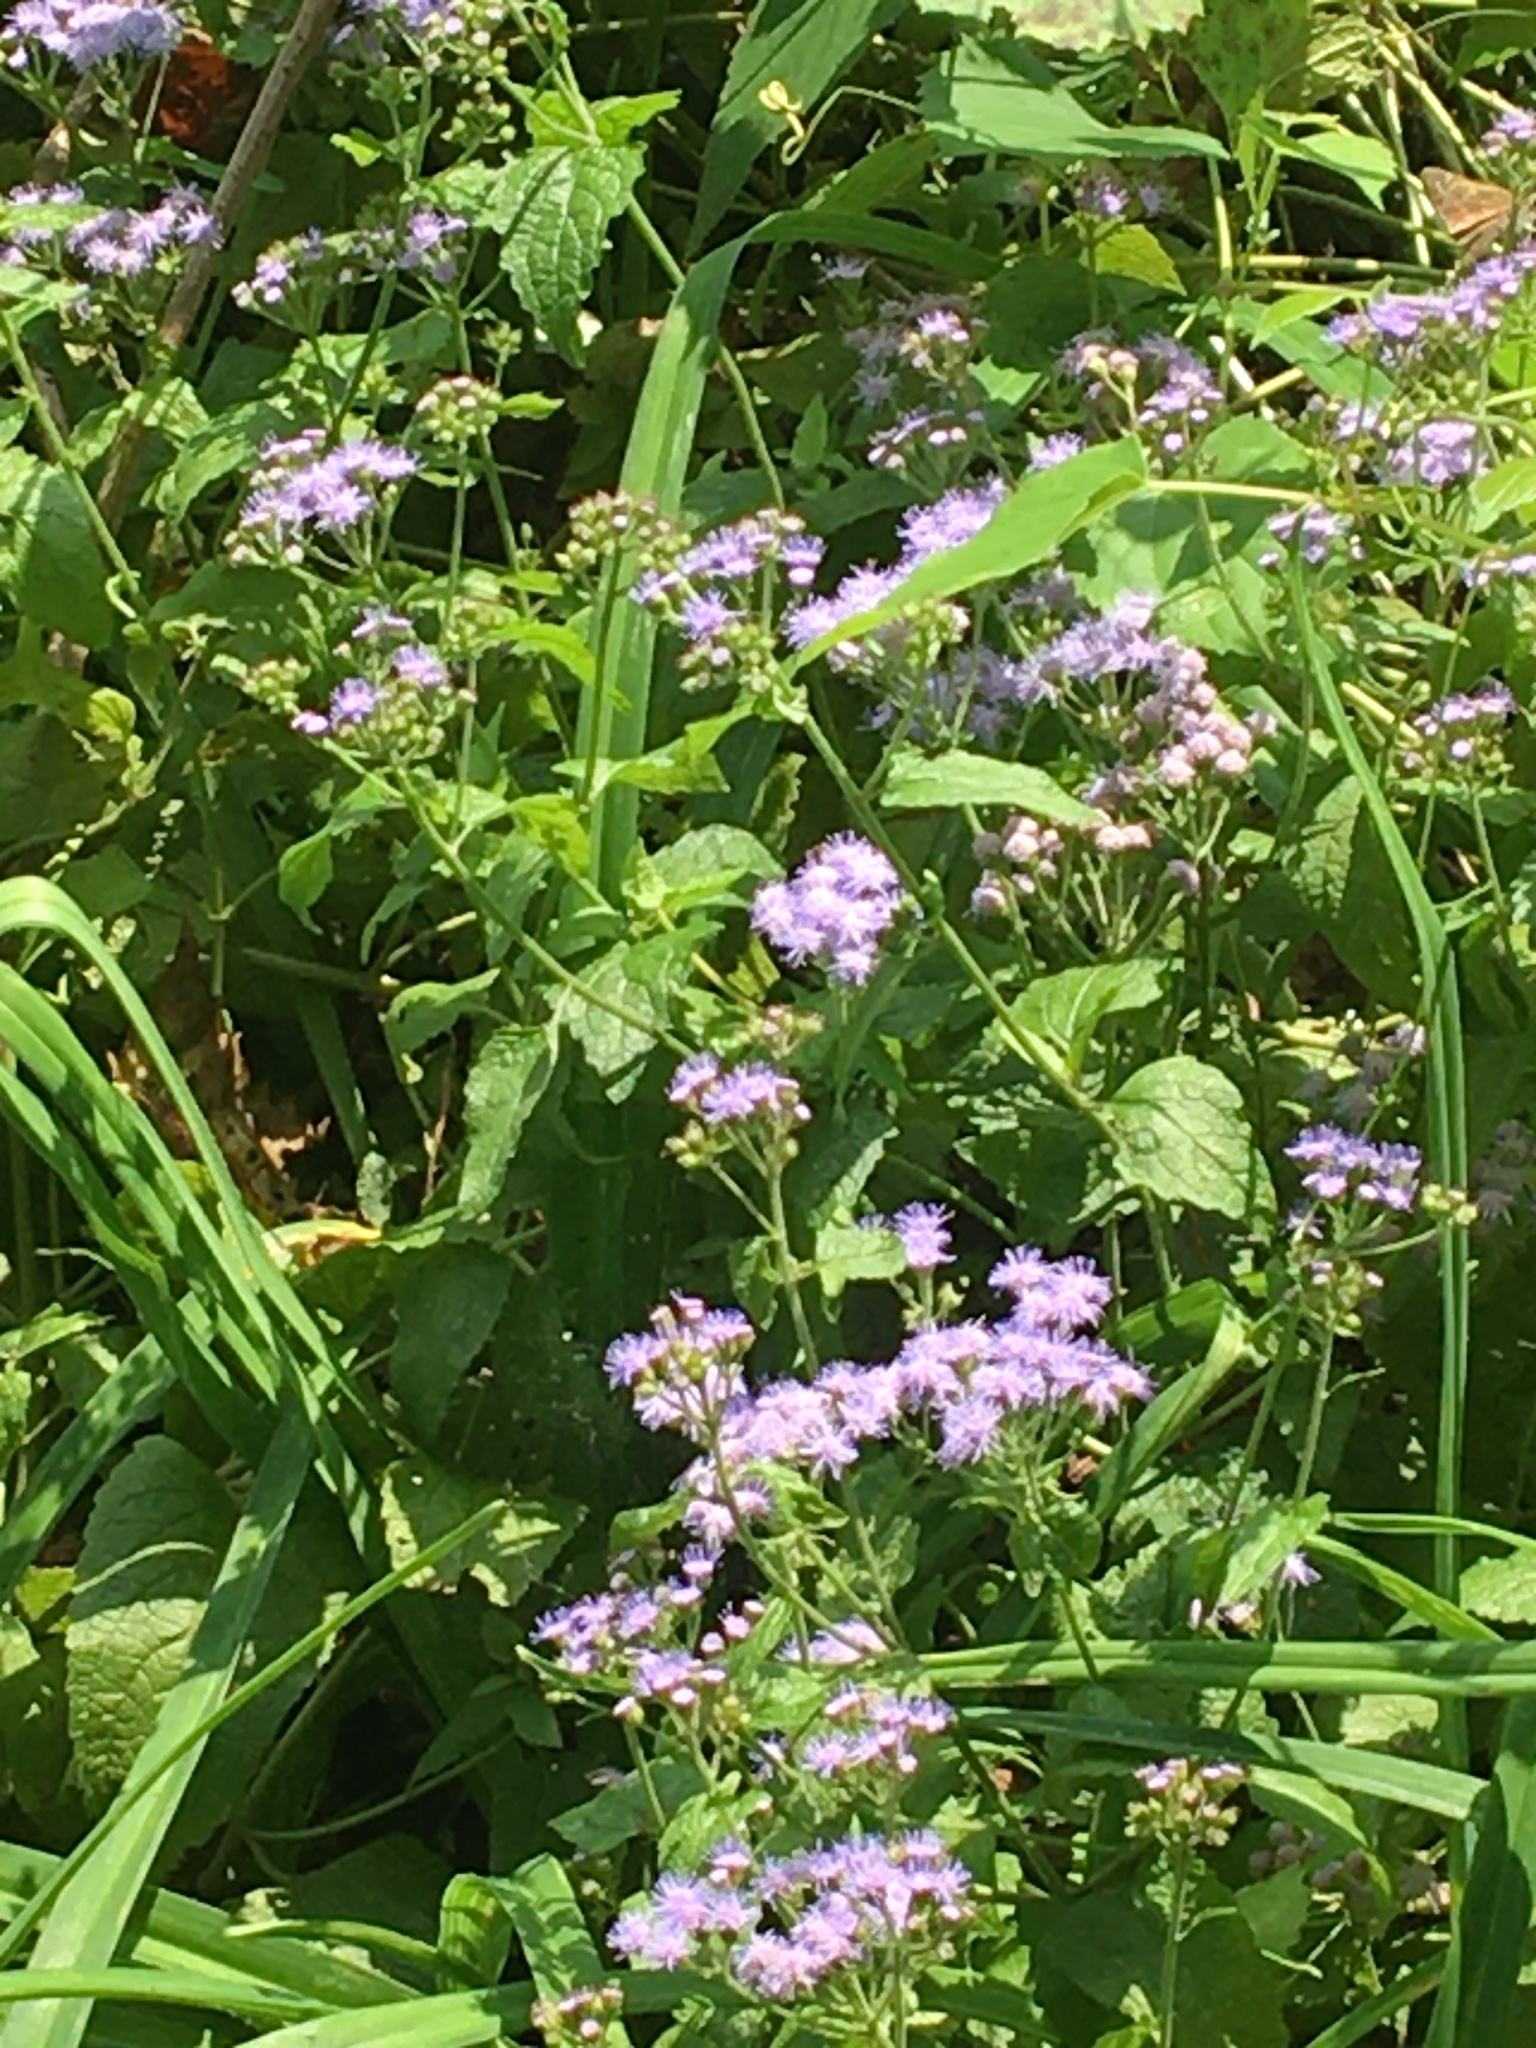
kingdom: Plantae
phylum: Tracheophyta
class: Magnoliopsida
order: Asterales
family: Asteraceae
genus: Conoclinium
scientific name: Conoclinium coelestinum
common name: Blue mistflower
